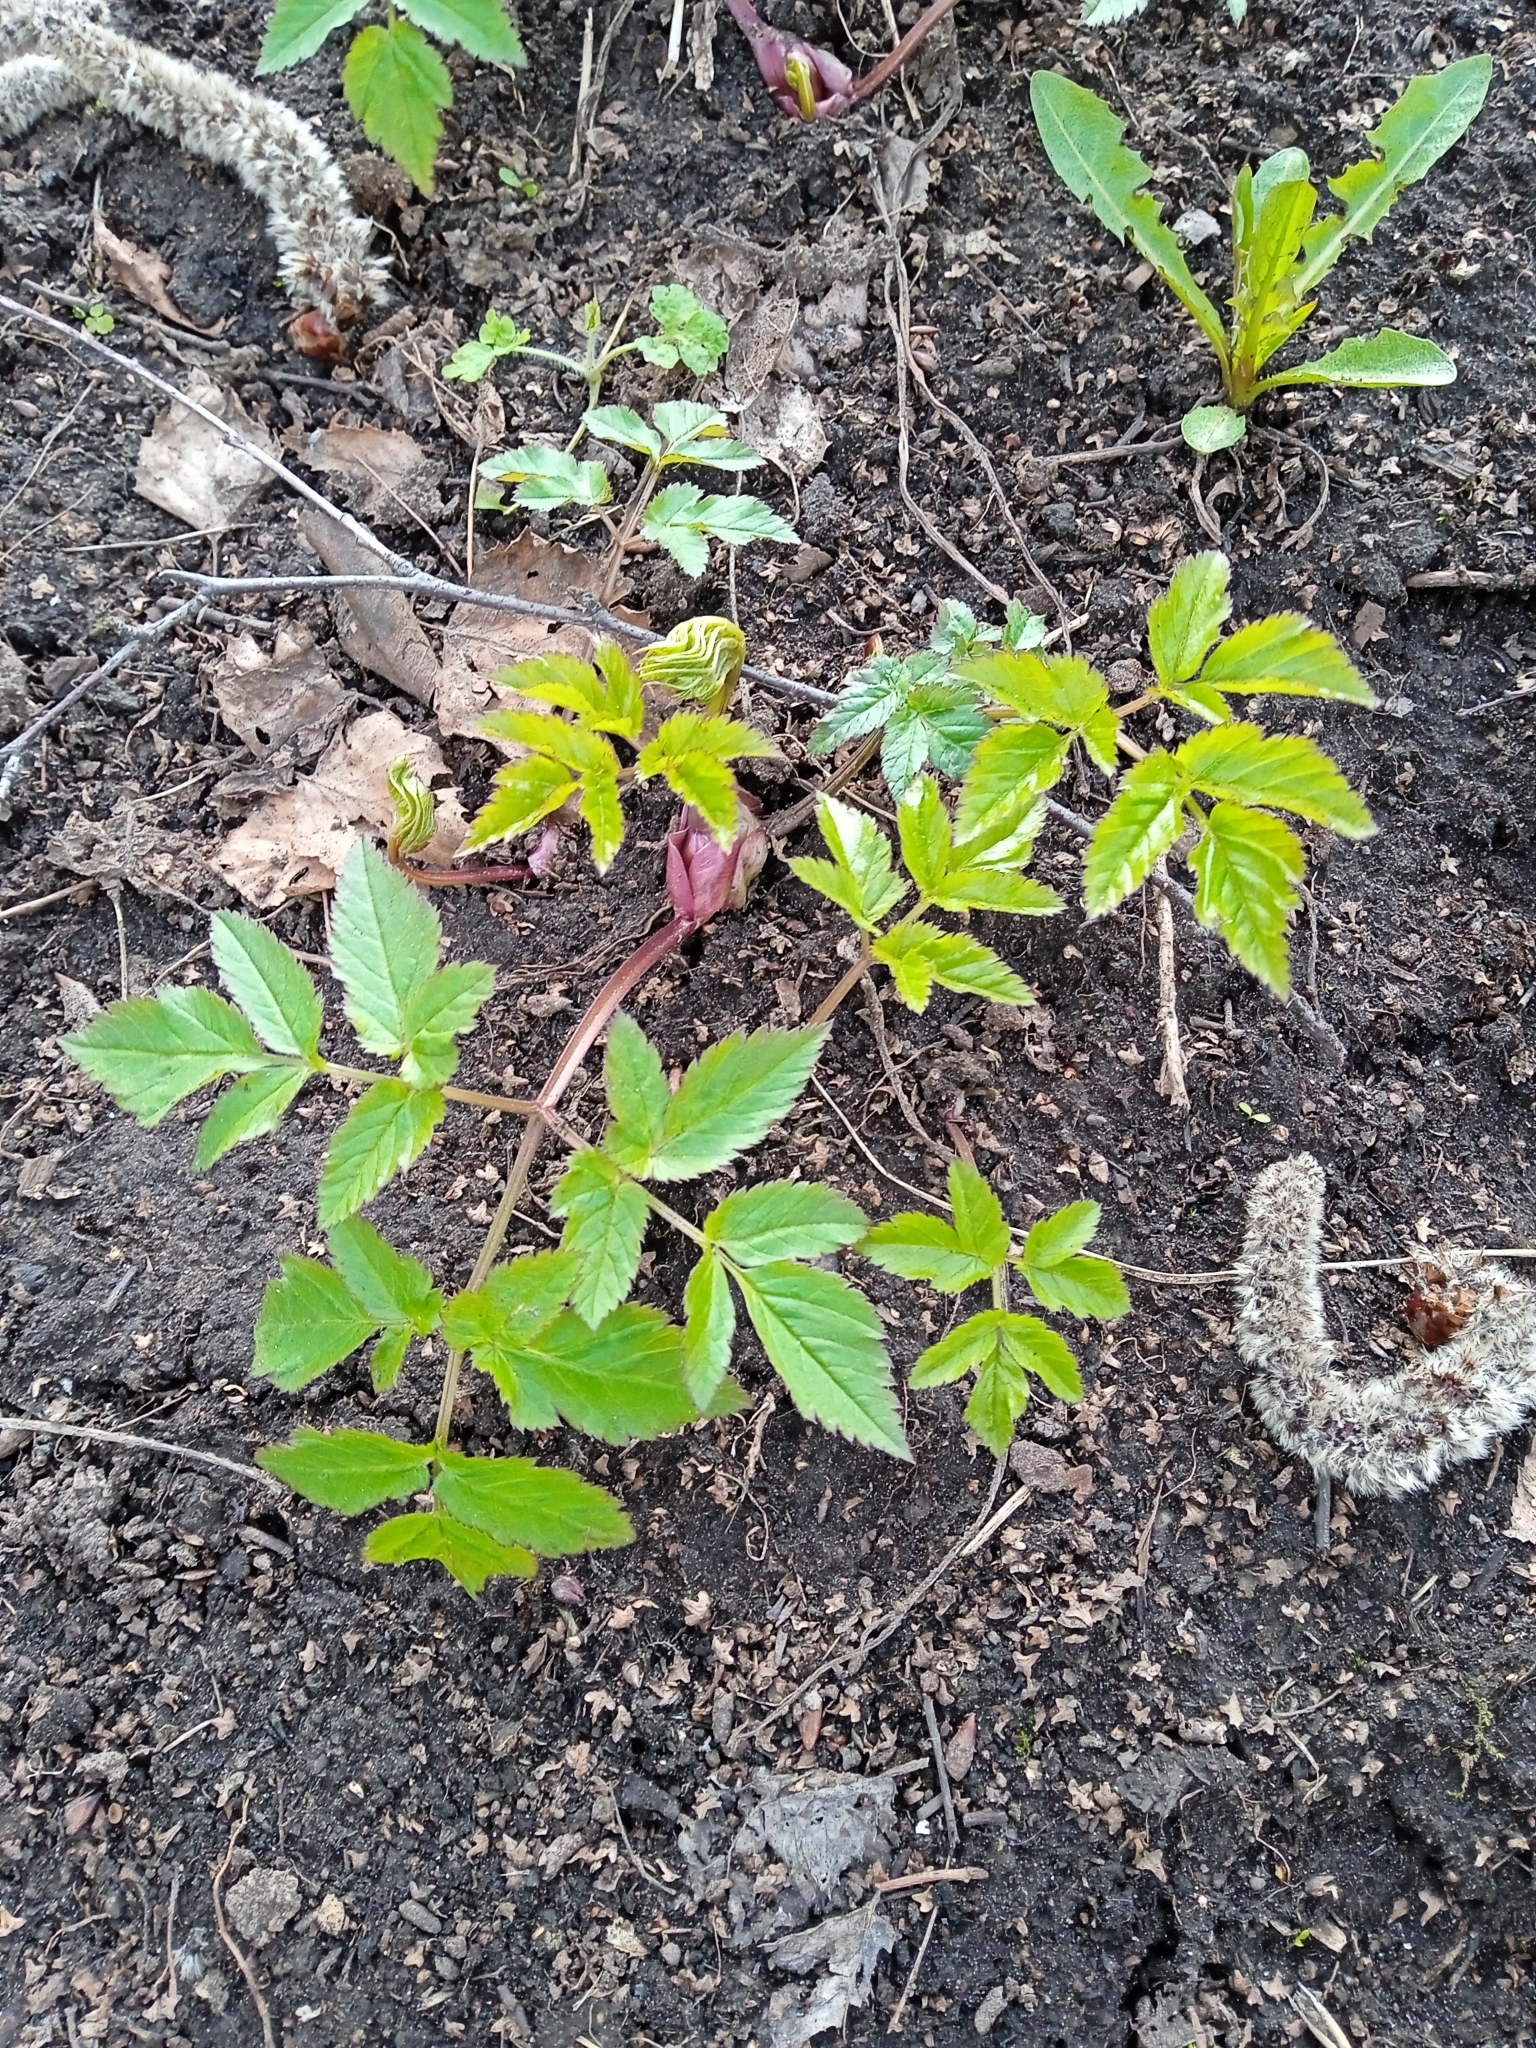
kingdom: Plantae
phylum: Tracheophyta
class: Magnoliopsida
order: Apiales
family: Apiaceae
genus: Aegopodium
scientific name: Aegopodium podagraria
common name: Ground-elder
